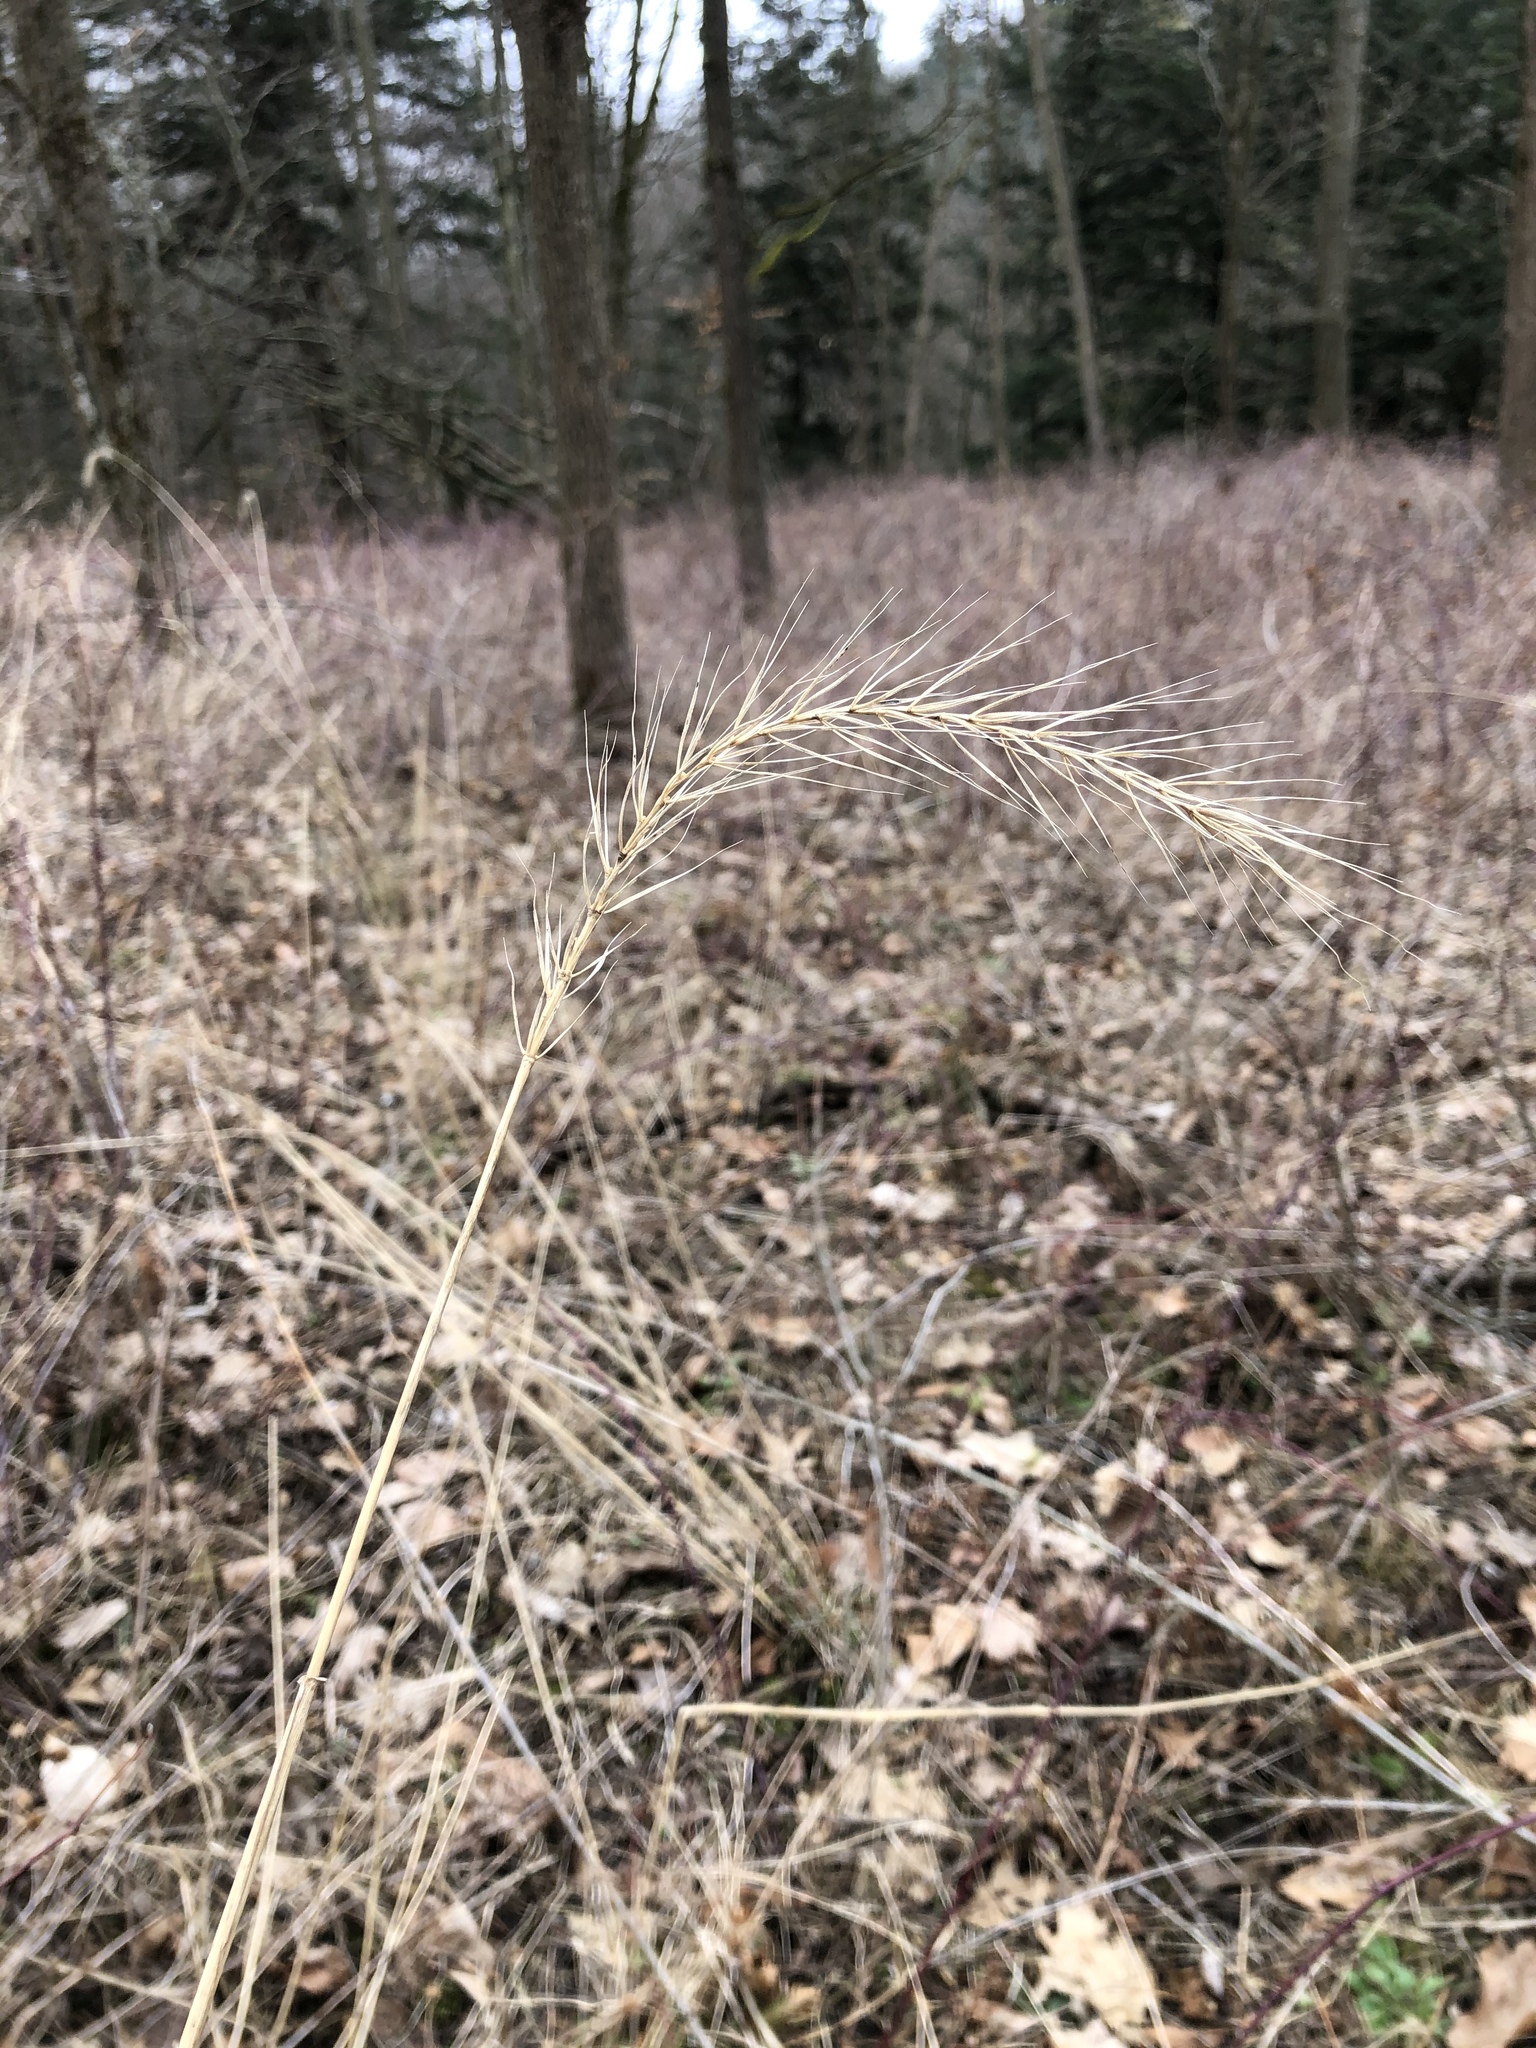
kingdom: Plantae
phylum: Tracheophyta
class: Liliopsida
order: Poales
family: Poaceae
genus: Elymus
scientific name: Elymus villosus
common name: Downy wild rye
